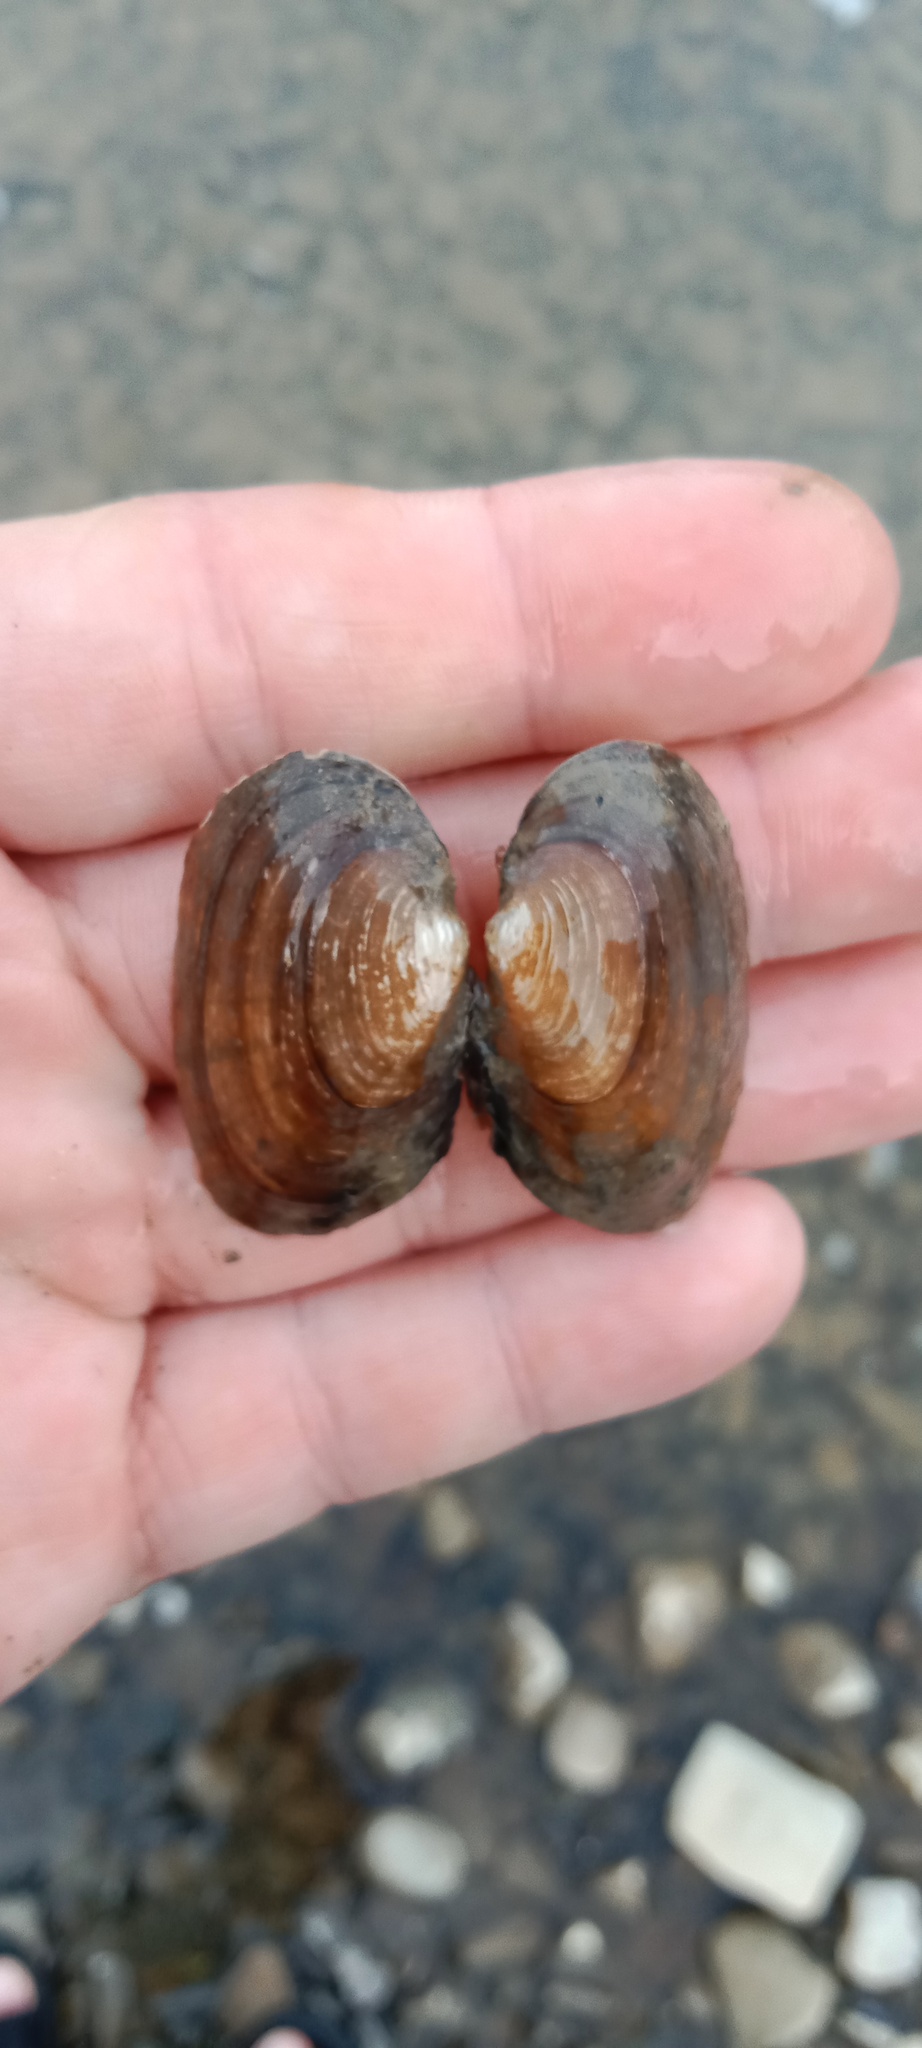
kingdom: Animalia
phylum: Mollusca
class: Bivalvia
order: Unionida
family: Unionidae
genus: Unio
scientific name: Unio crassus
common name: Thick shelled river mussel
